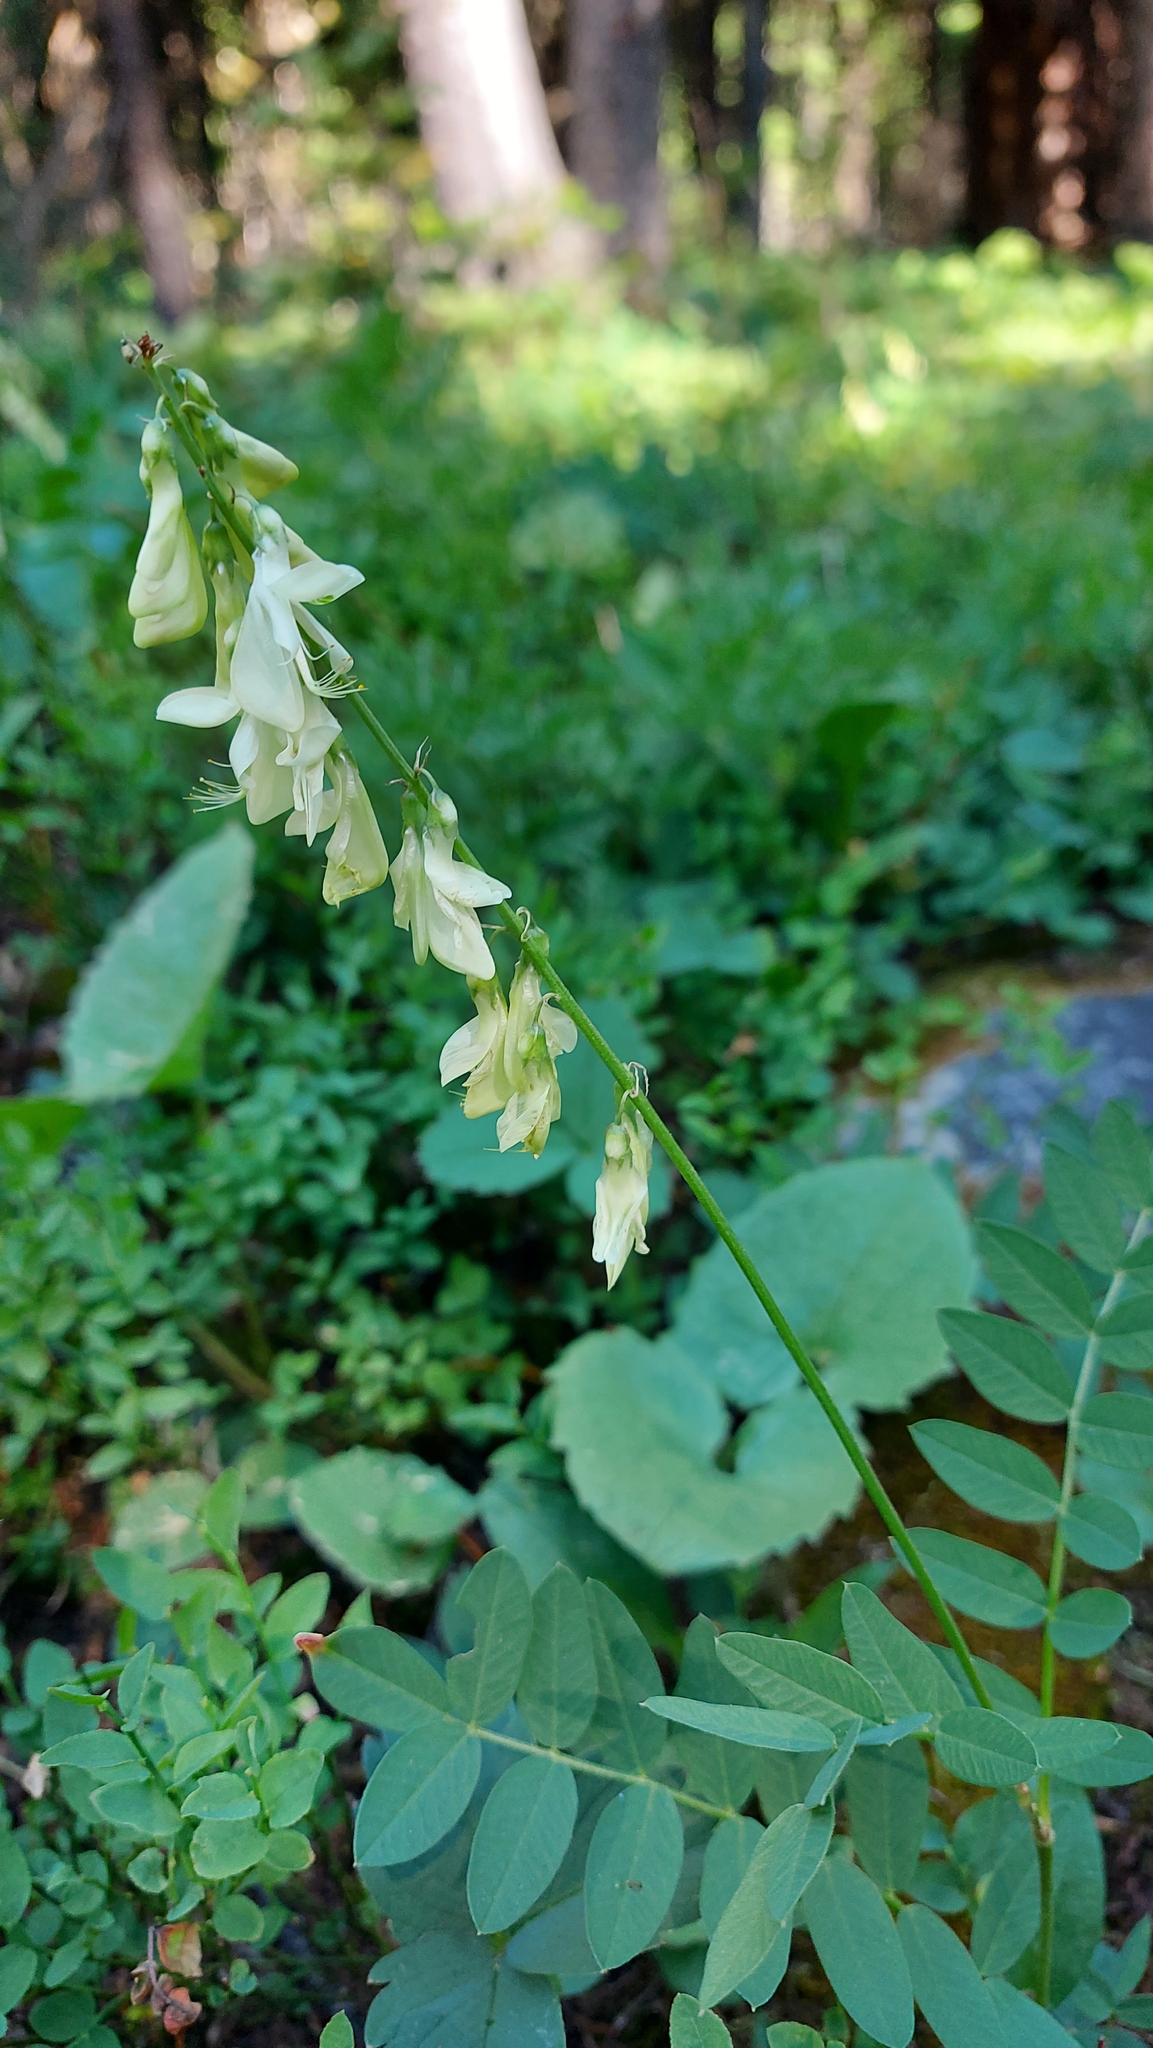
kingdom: Plantae
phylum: Tracheophyta
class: Magnoliopsida
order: Fabales
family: Fabaceae
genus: Hedysarum
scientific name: Hedysarum sulphurescens
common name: Sulphur hedysarum
